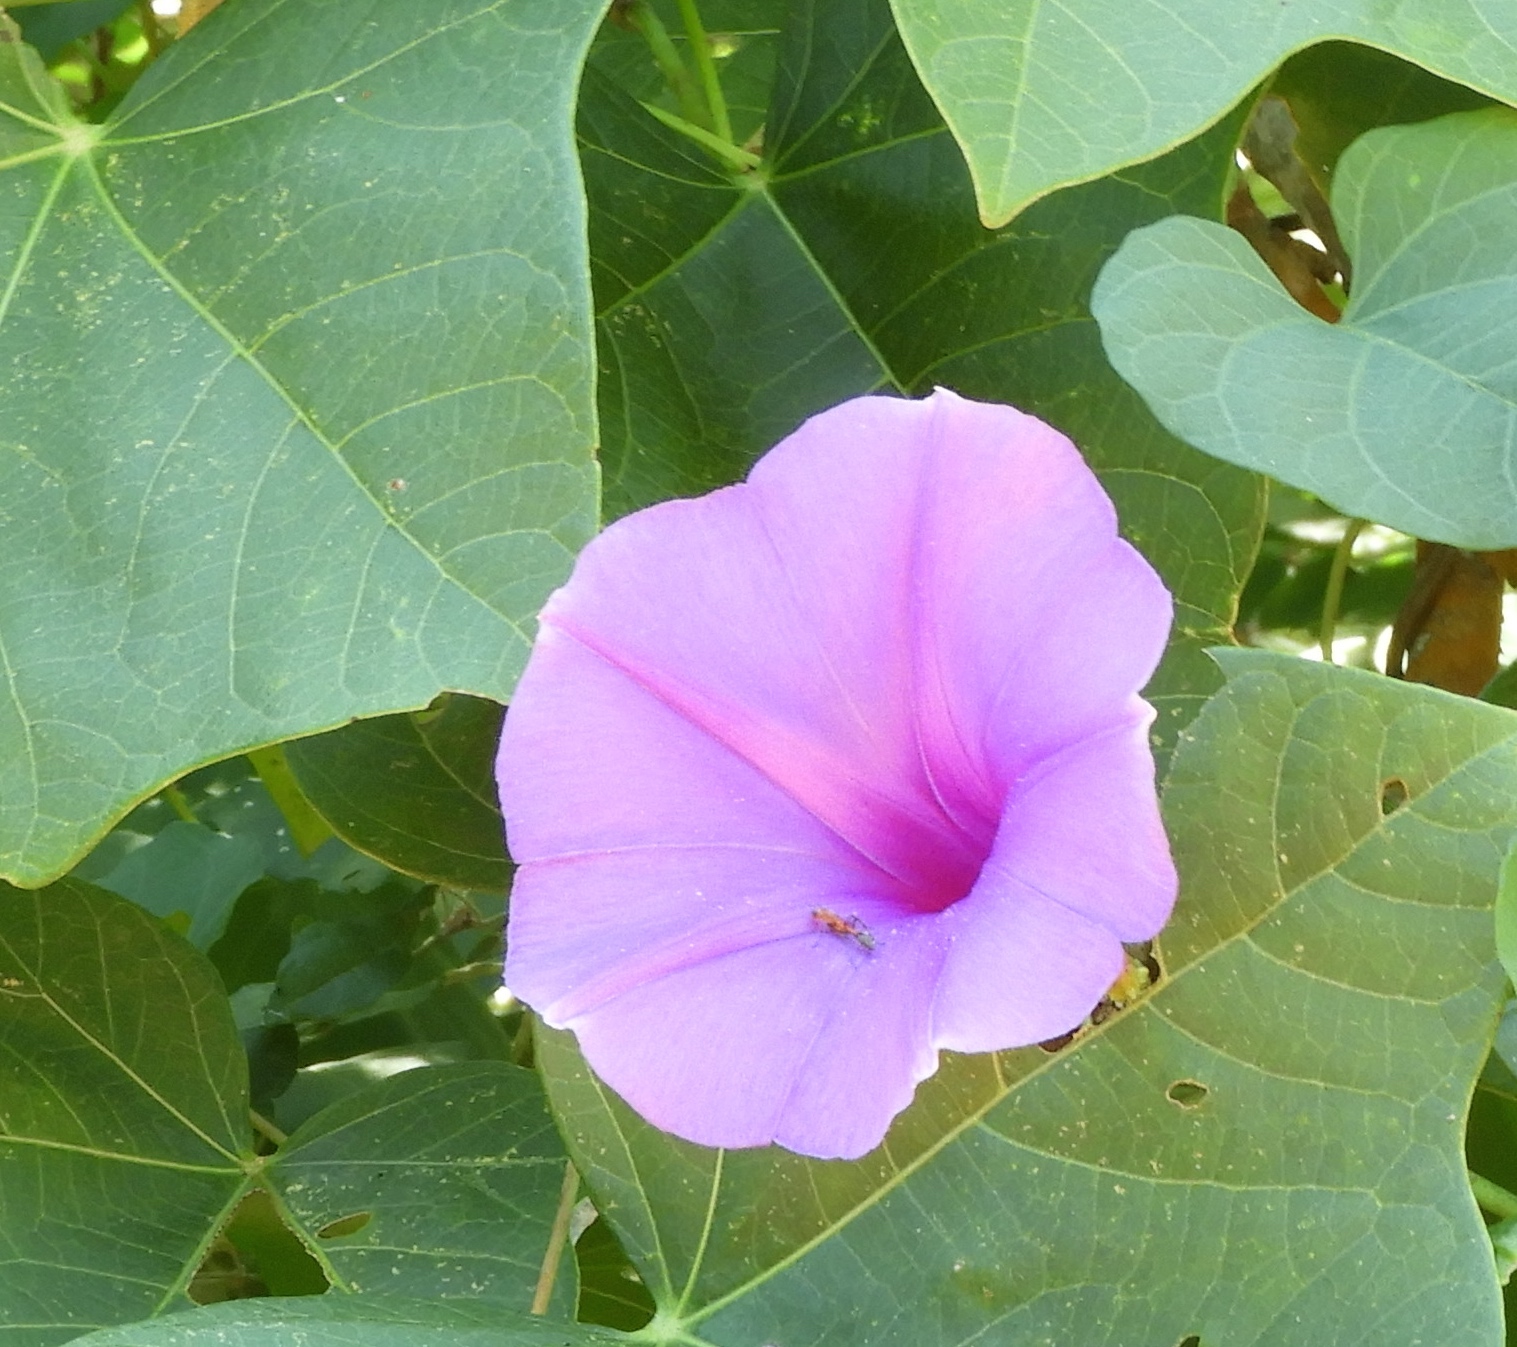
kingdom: Plantae
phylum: Tracheophyta
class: Magnoliopsida
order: Solanales
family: Convolvulaceae
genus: Ipomoea
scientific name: Ipomoea pedicellaris
